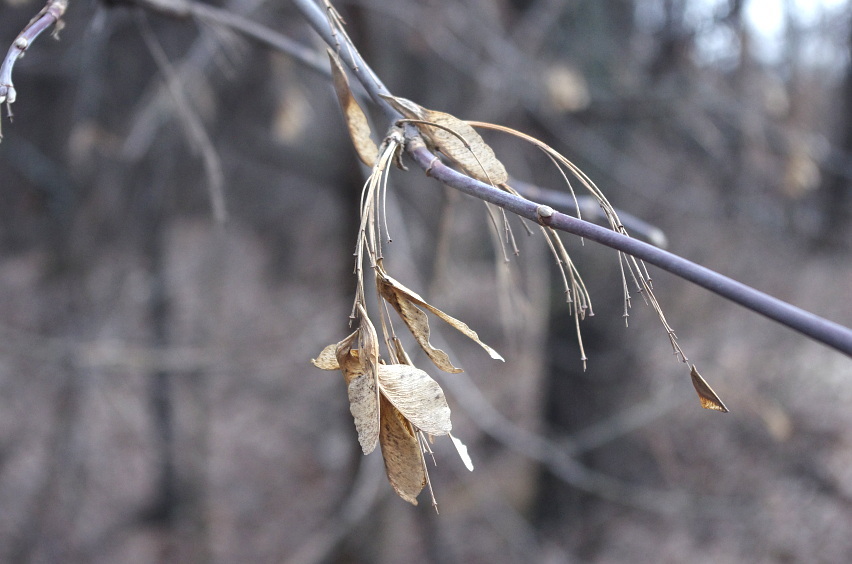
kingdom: Plantae
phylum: Tracheophyta
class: Magnoliopsida
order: Sapindales
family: Sapindaceae
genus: Acer
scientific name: Acer negundo
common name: Ashleaf maple
